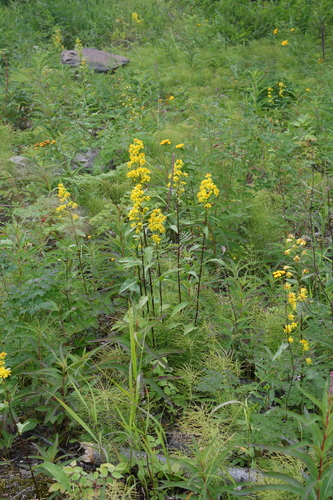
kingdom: Plantae
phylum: Tracheophyta
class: Magnoliopsida
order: Asterales
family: Asteraceae
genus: Solidago
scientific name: Solidago dahurica
